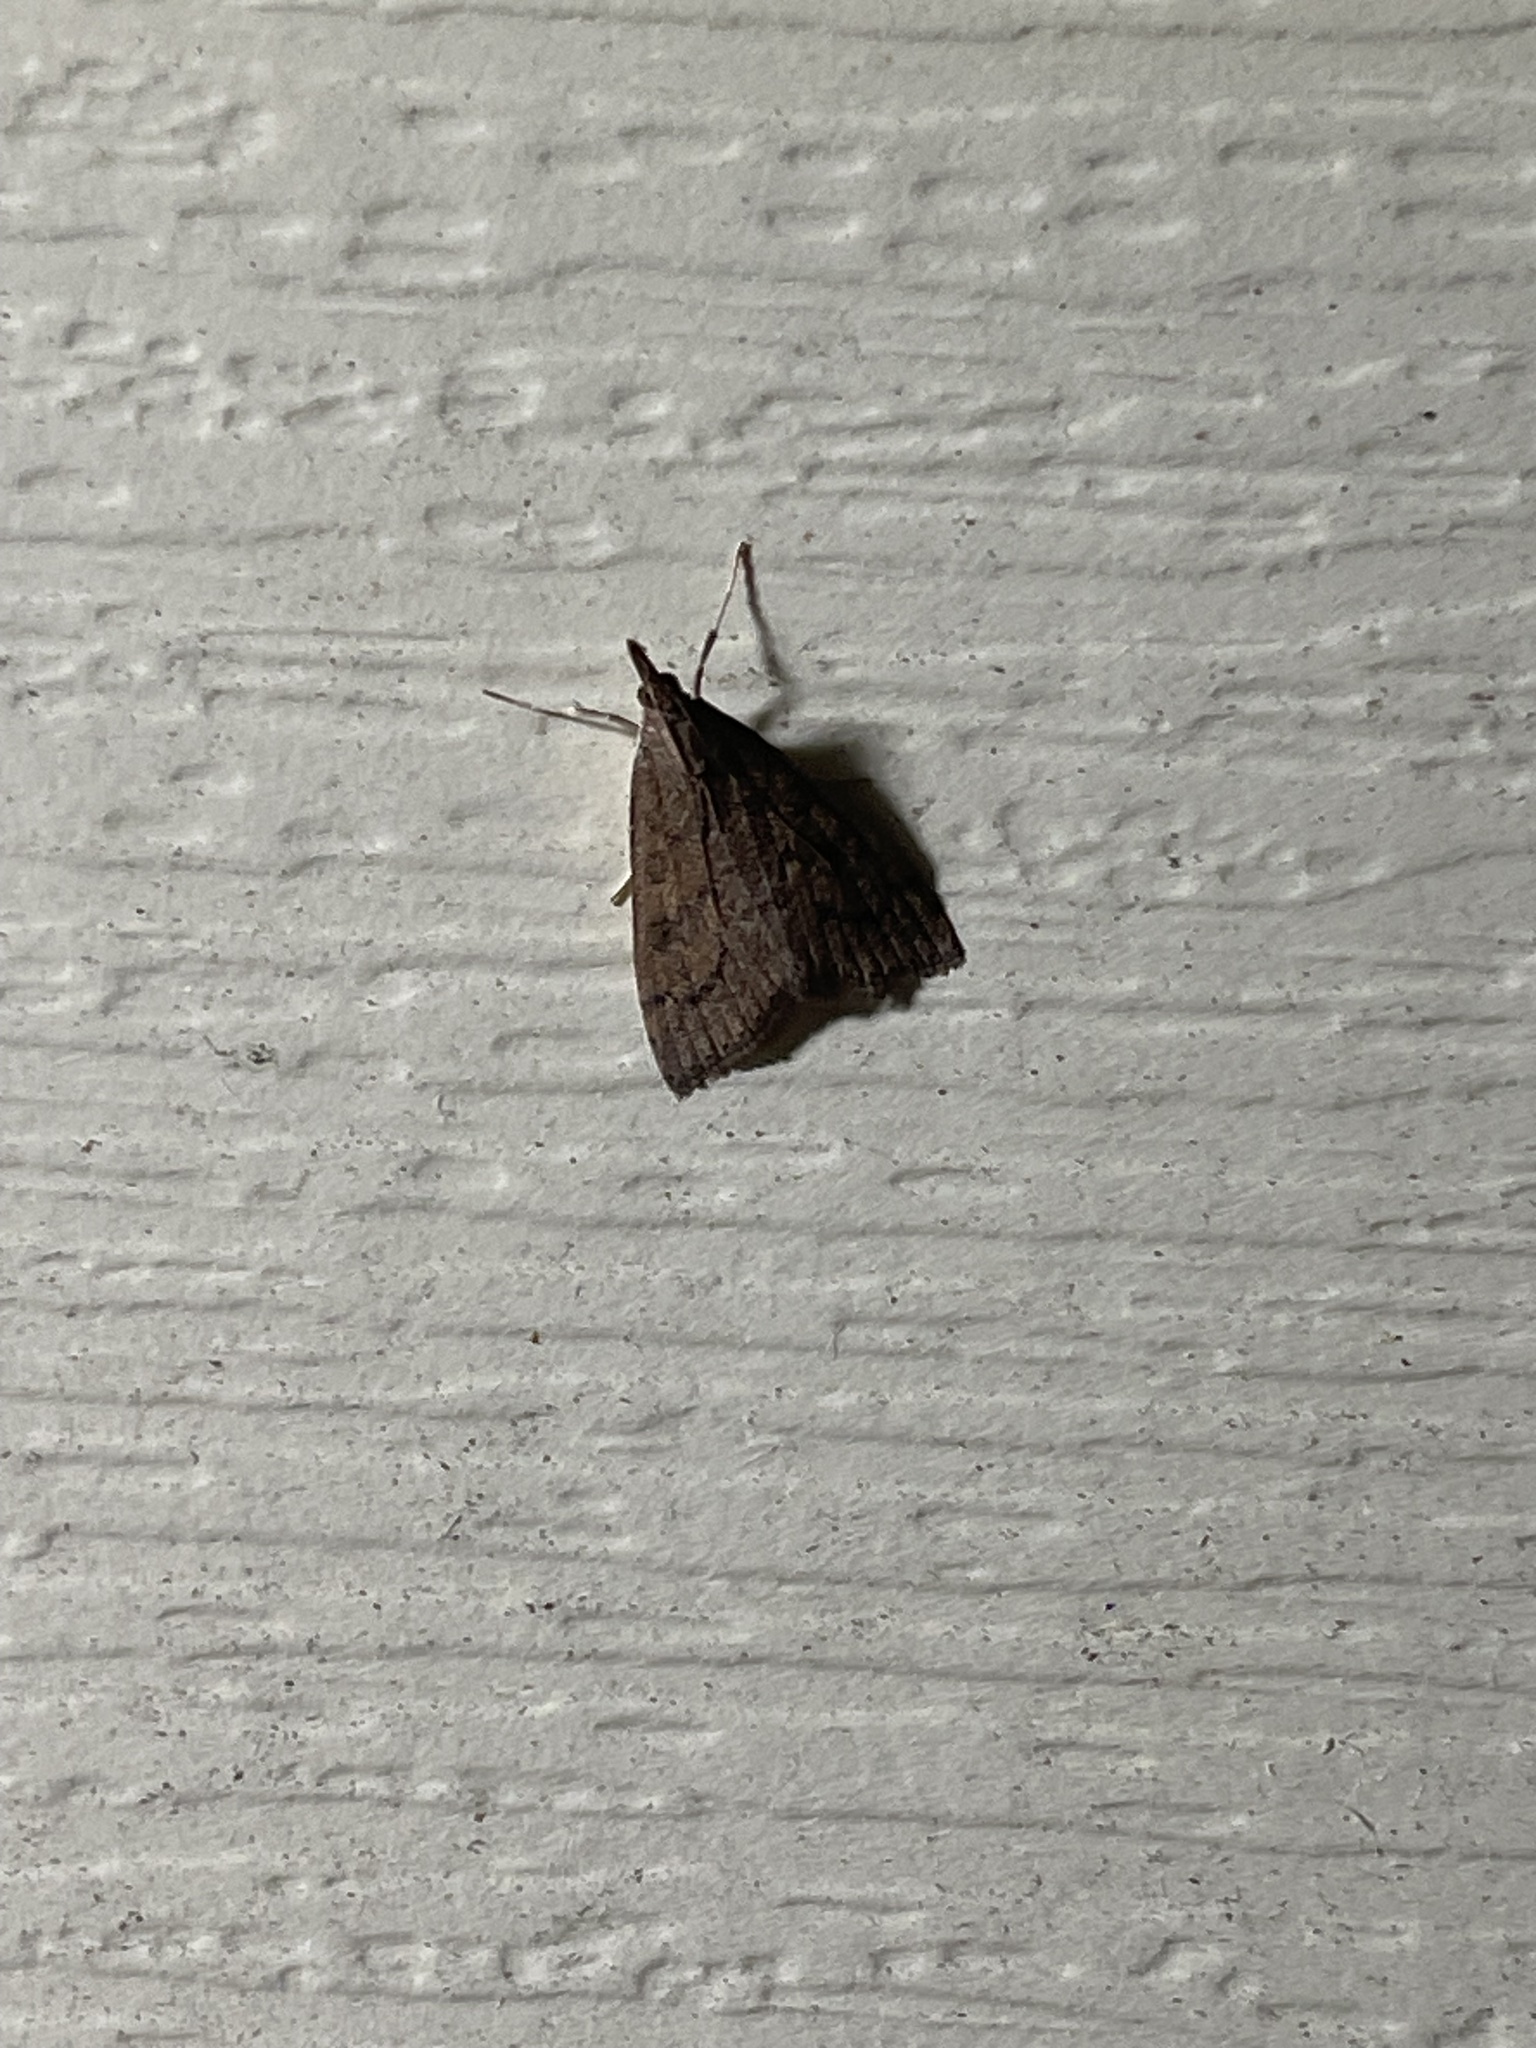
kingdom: Animalia
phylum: Arthropoda
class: Insecta
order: Lepidoptera
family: Crambidae
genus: Udea
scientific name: Udea rubigalis
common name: Celery leaftier moth
